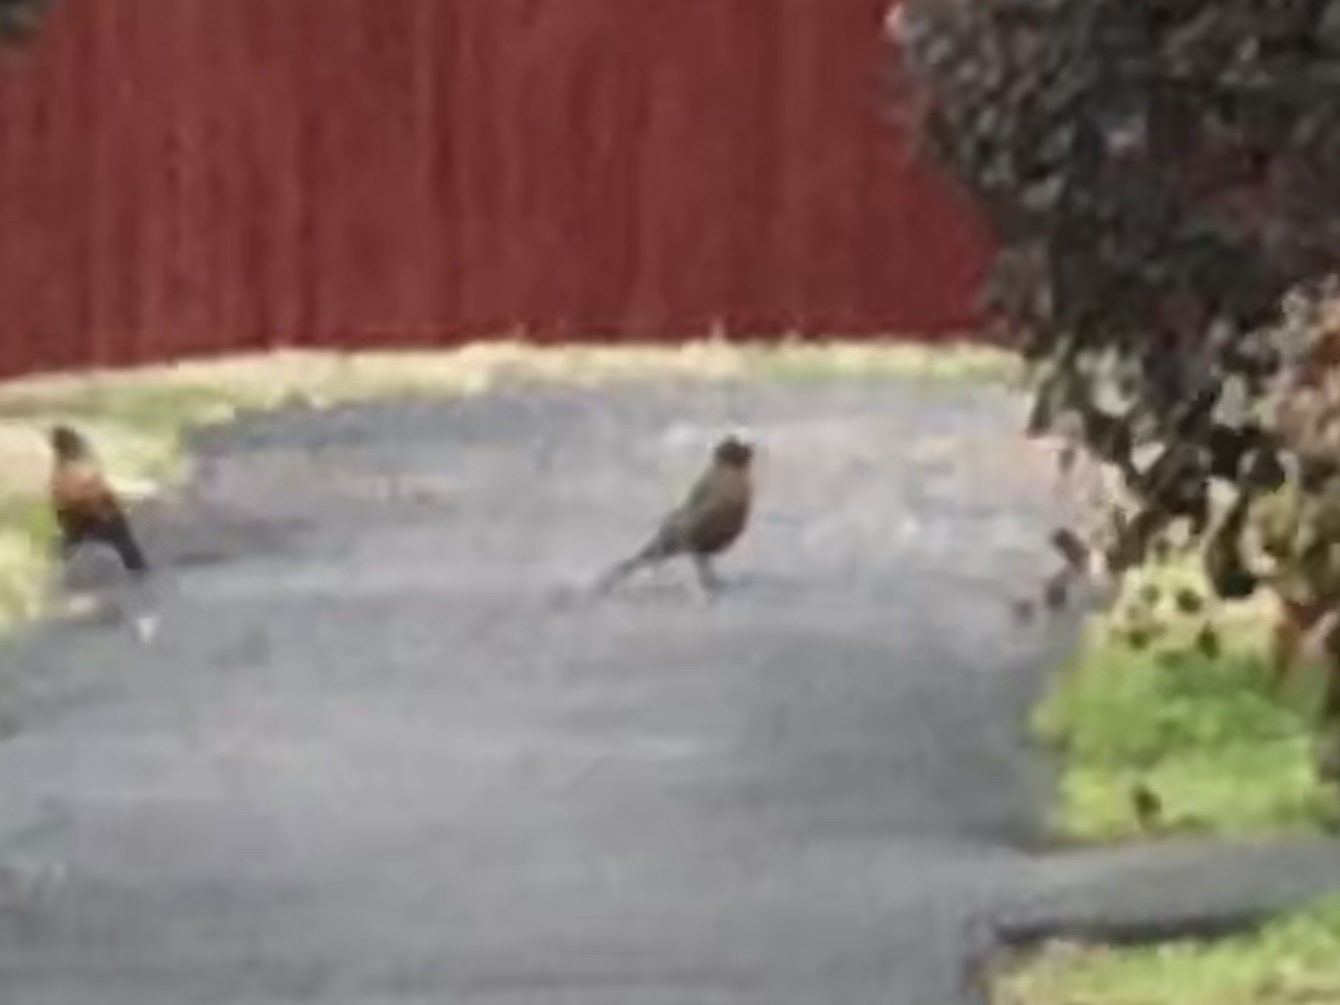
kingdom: Animalia
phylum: Chordata
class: Aves
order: Passeriformes
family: Turdidae
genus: Turdus
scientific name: Turdus migratorius
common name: American robin
